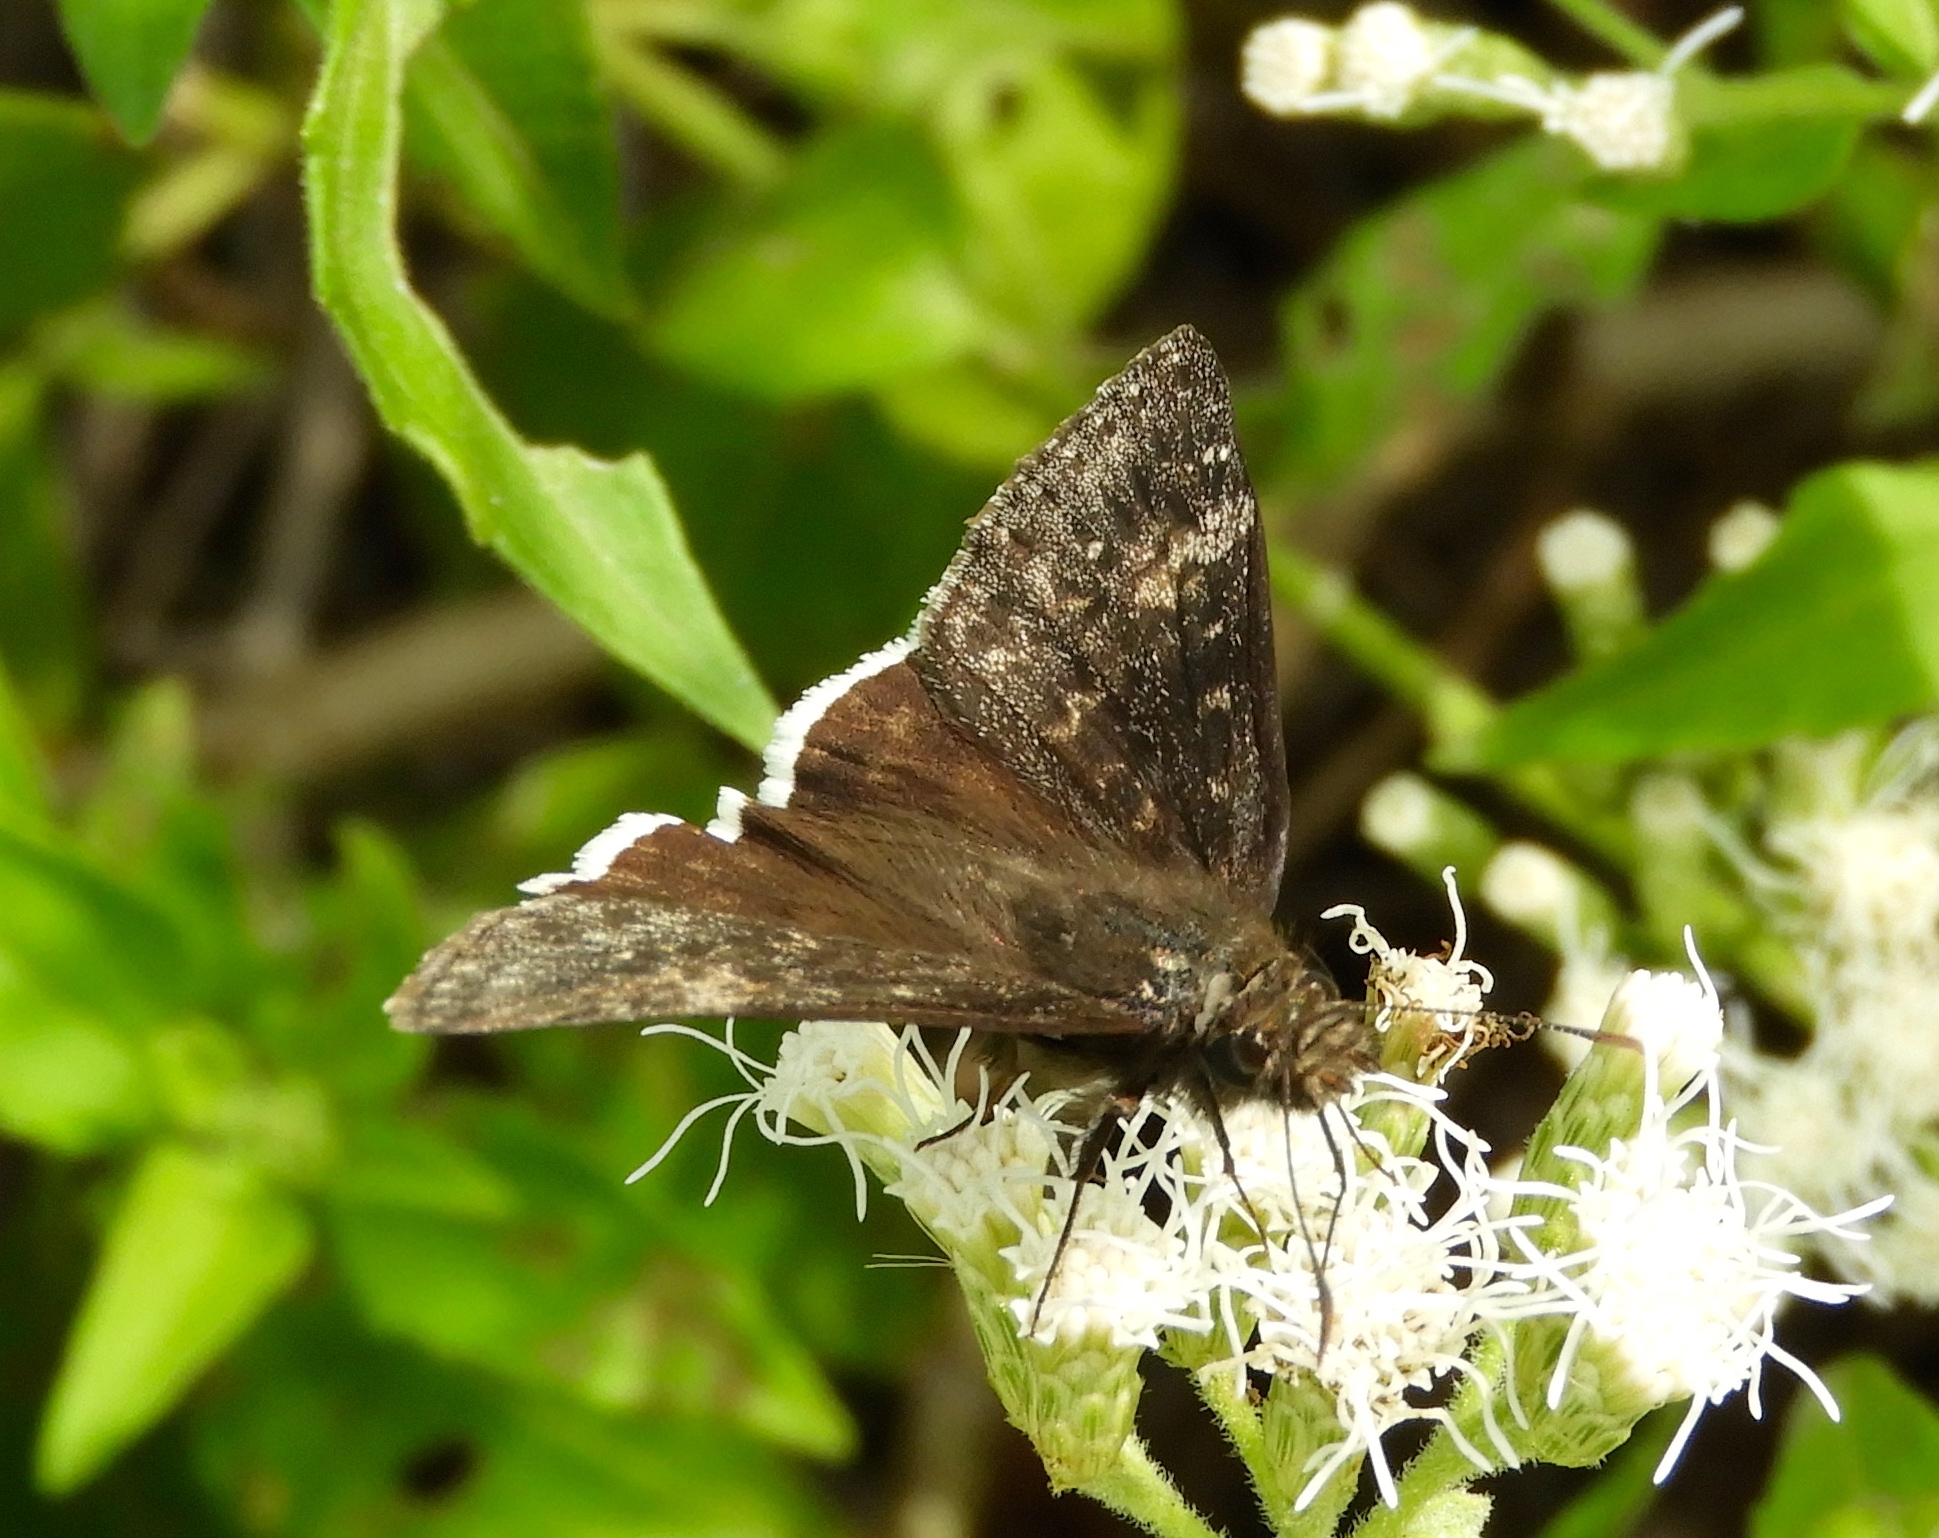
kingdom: Animalia
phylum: Arthropoda
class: Insecta
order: Lepidoptera
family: Hesperiidae
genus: Erynnis
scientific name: Erynnis
